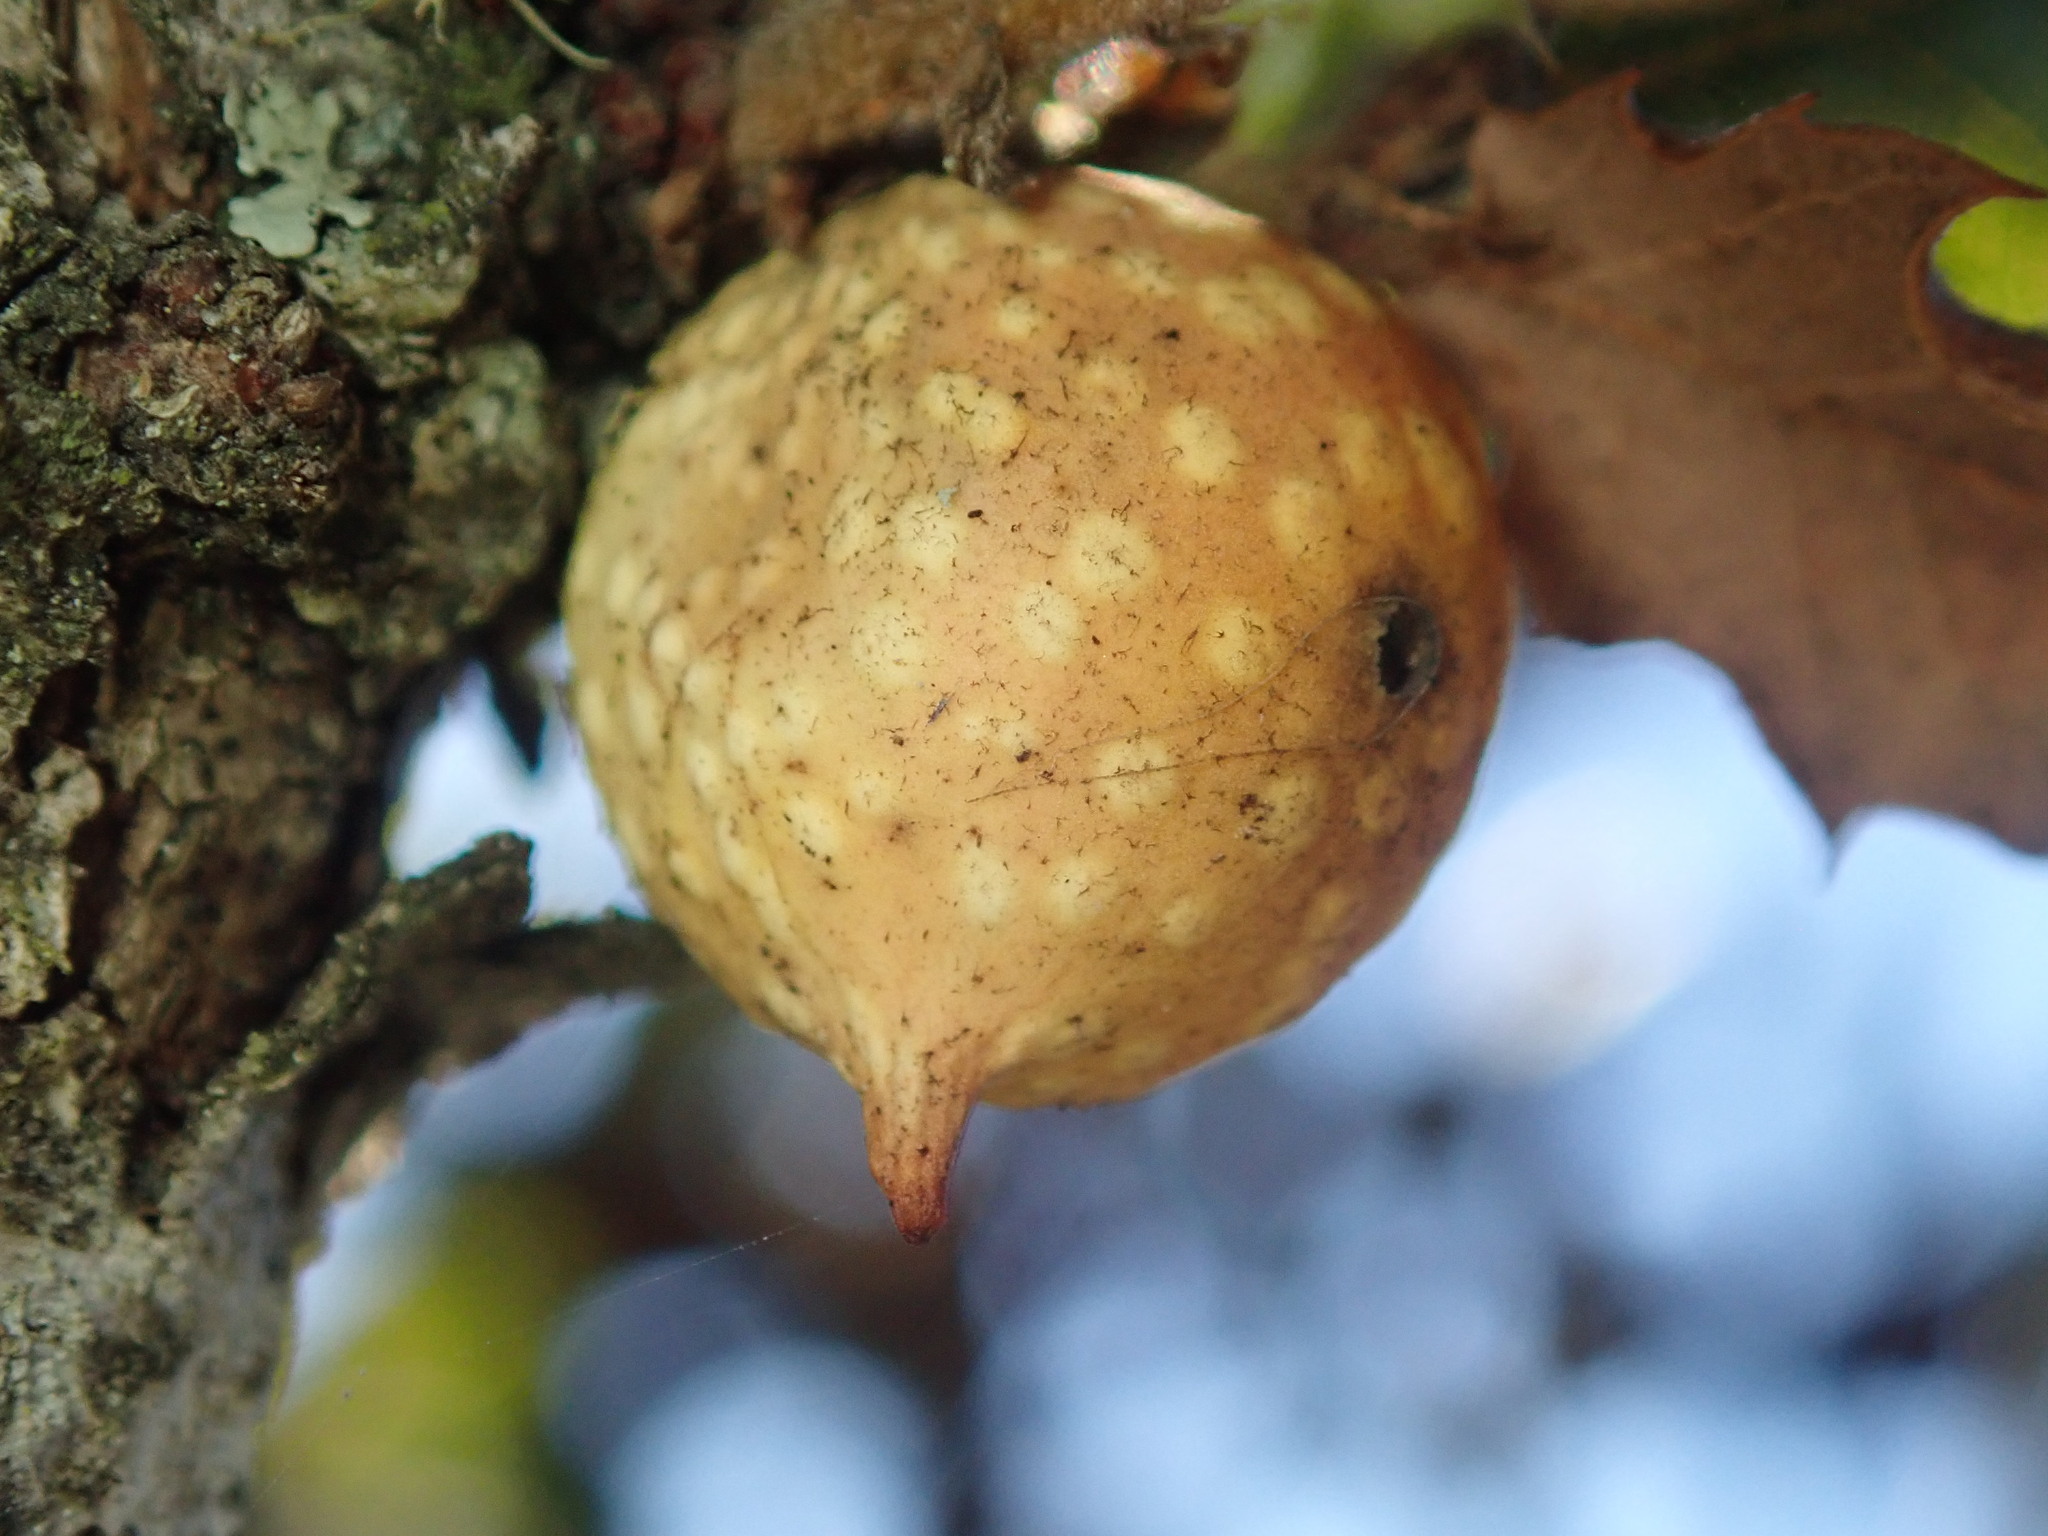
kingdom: Animalia
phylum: Arthropoda
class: Insecta
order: Hymenoptera
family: Cynipidae
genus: Burnettweldia
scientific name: Burnettweldia
